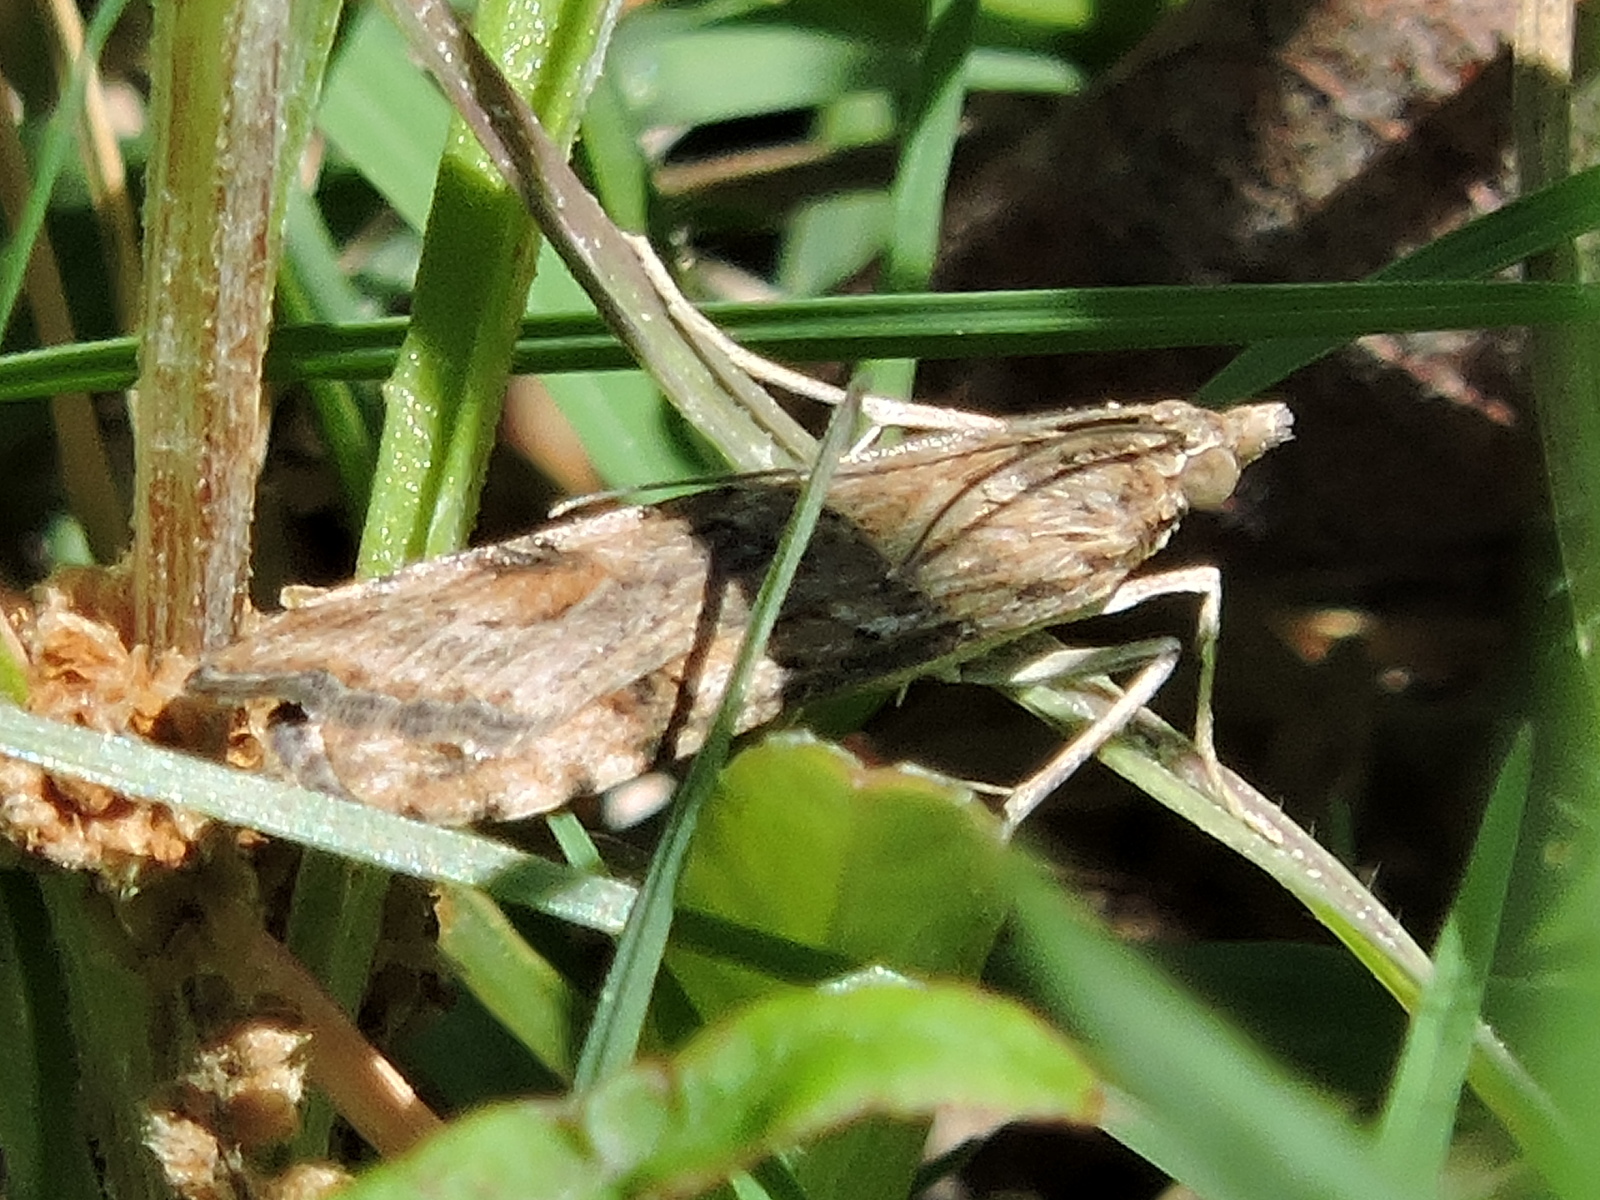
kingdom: Animalia
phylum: Arthropoda
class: Insecta
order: Lepidoptera
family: Crambidae
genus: Nomophila
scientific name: Nomophila nearctica
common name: American rush veneer
